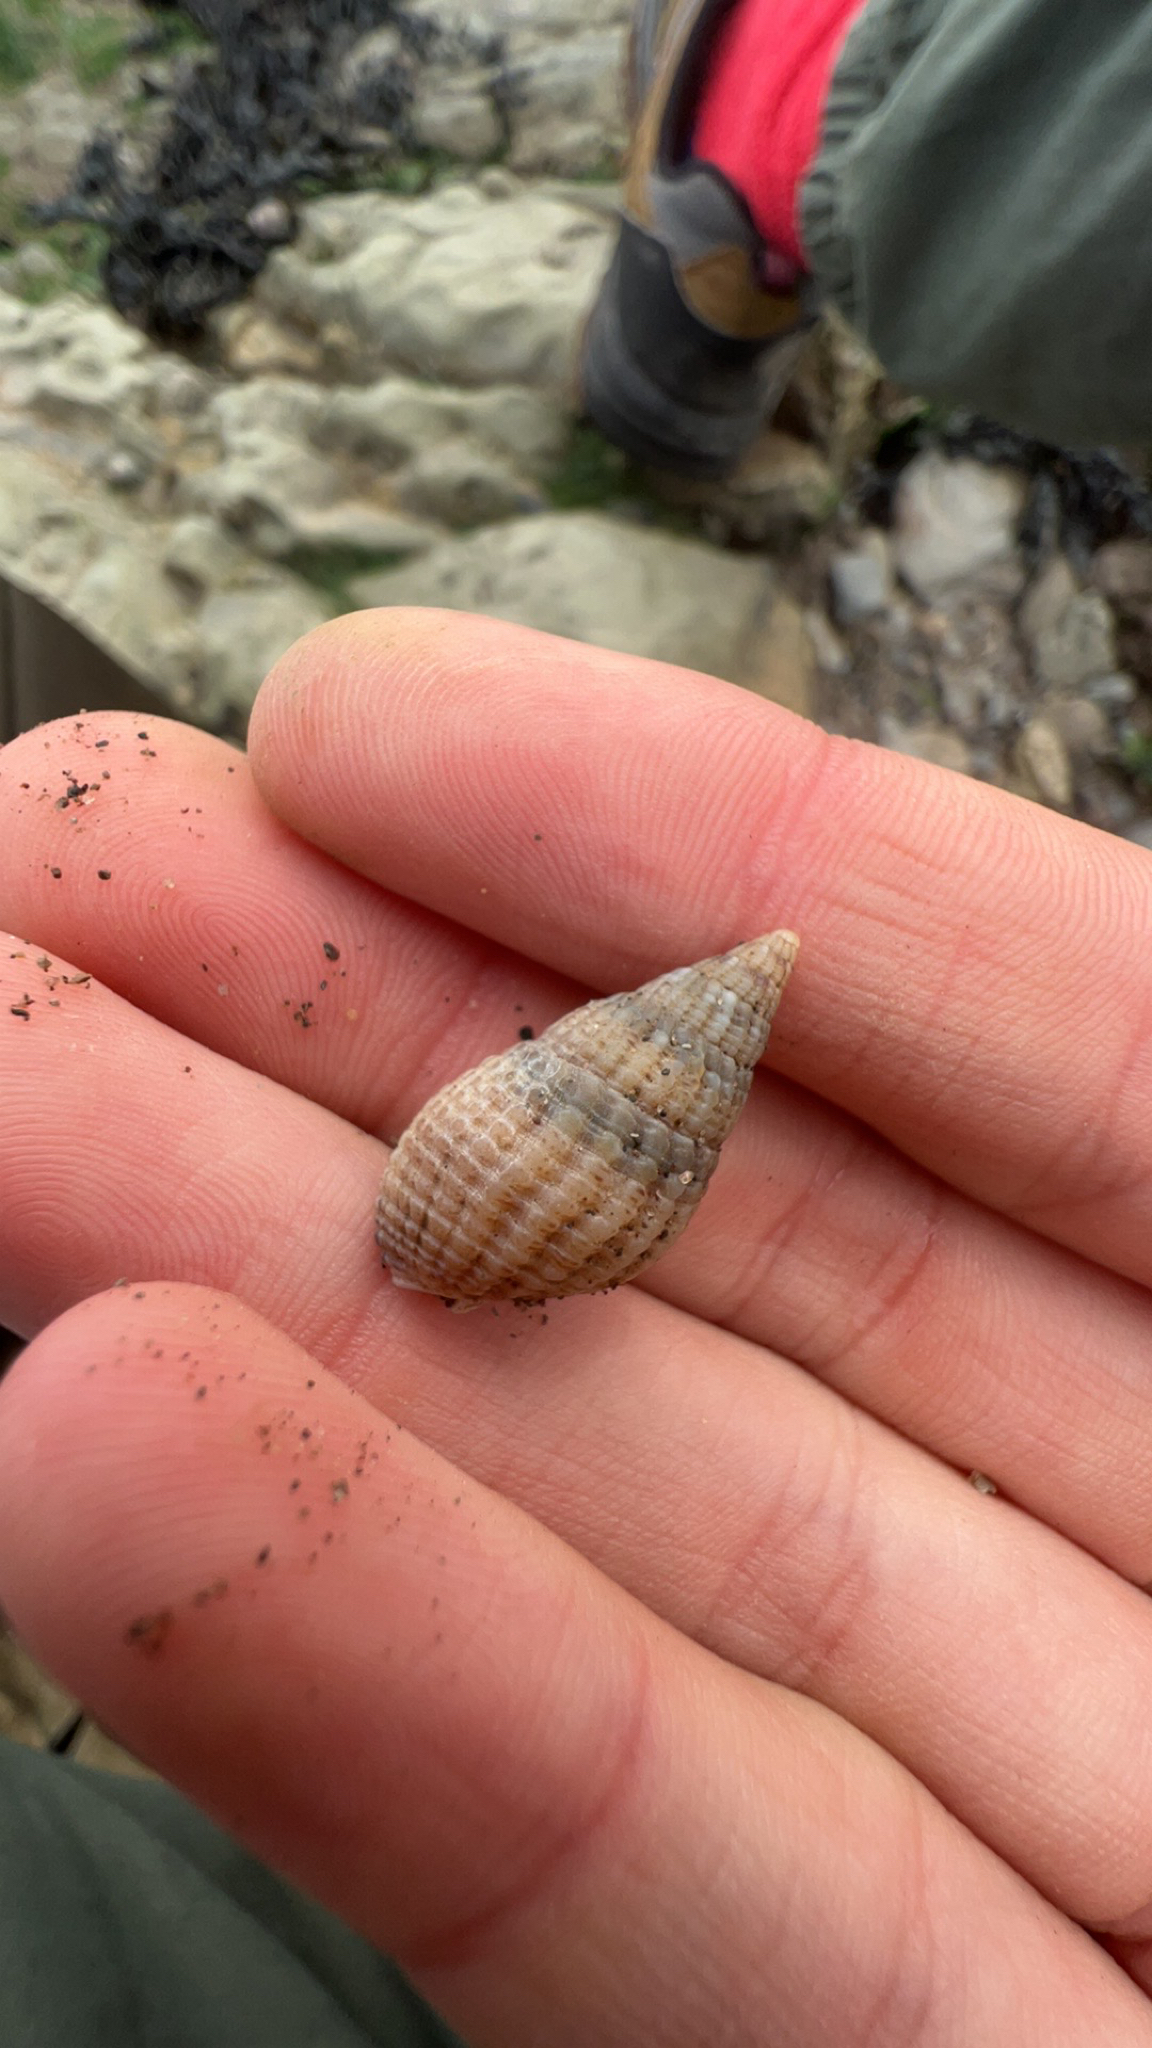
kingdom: Animalia
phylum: Mollusca
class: Gastropoda
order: Neogastropoda
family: Nassariidae
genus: Tritia
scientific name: Tritia reticulata
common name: Netted dog whelk
